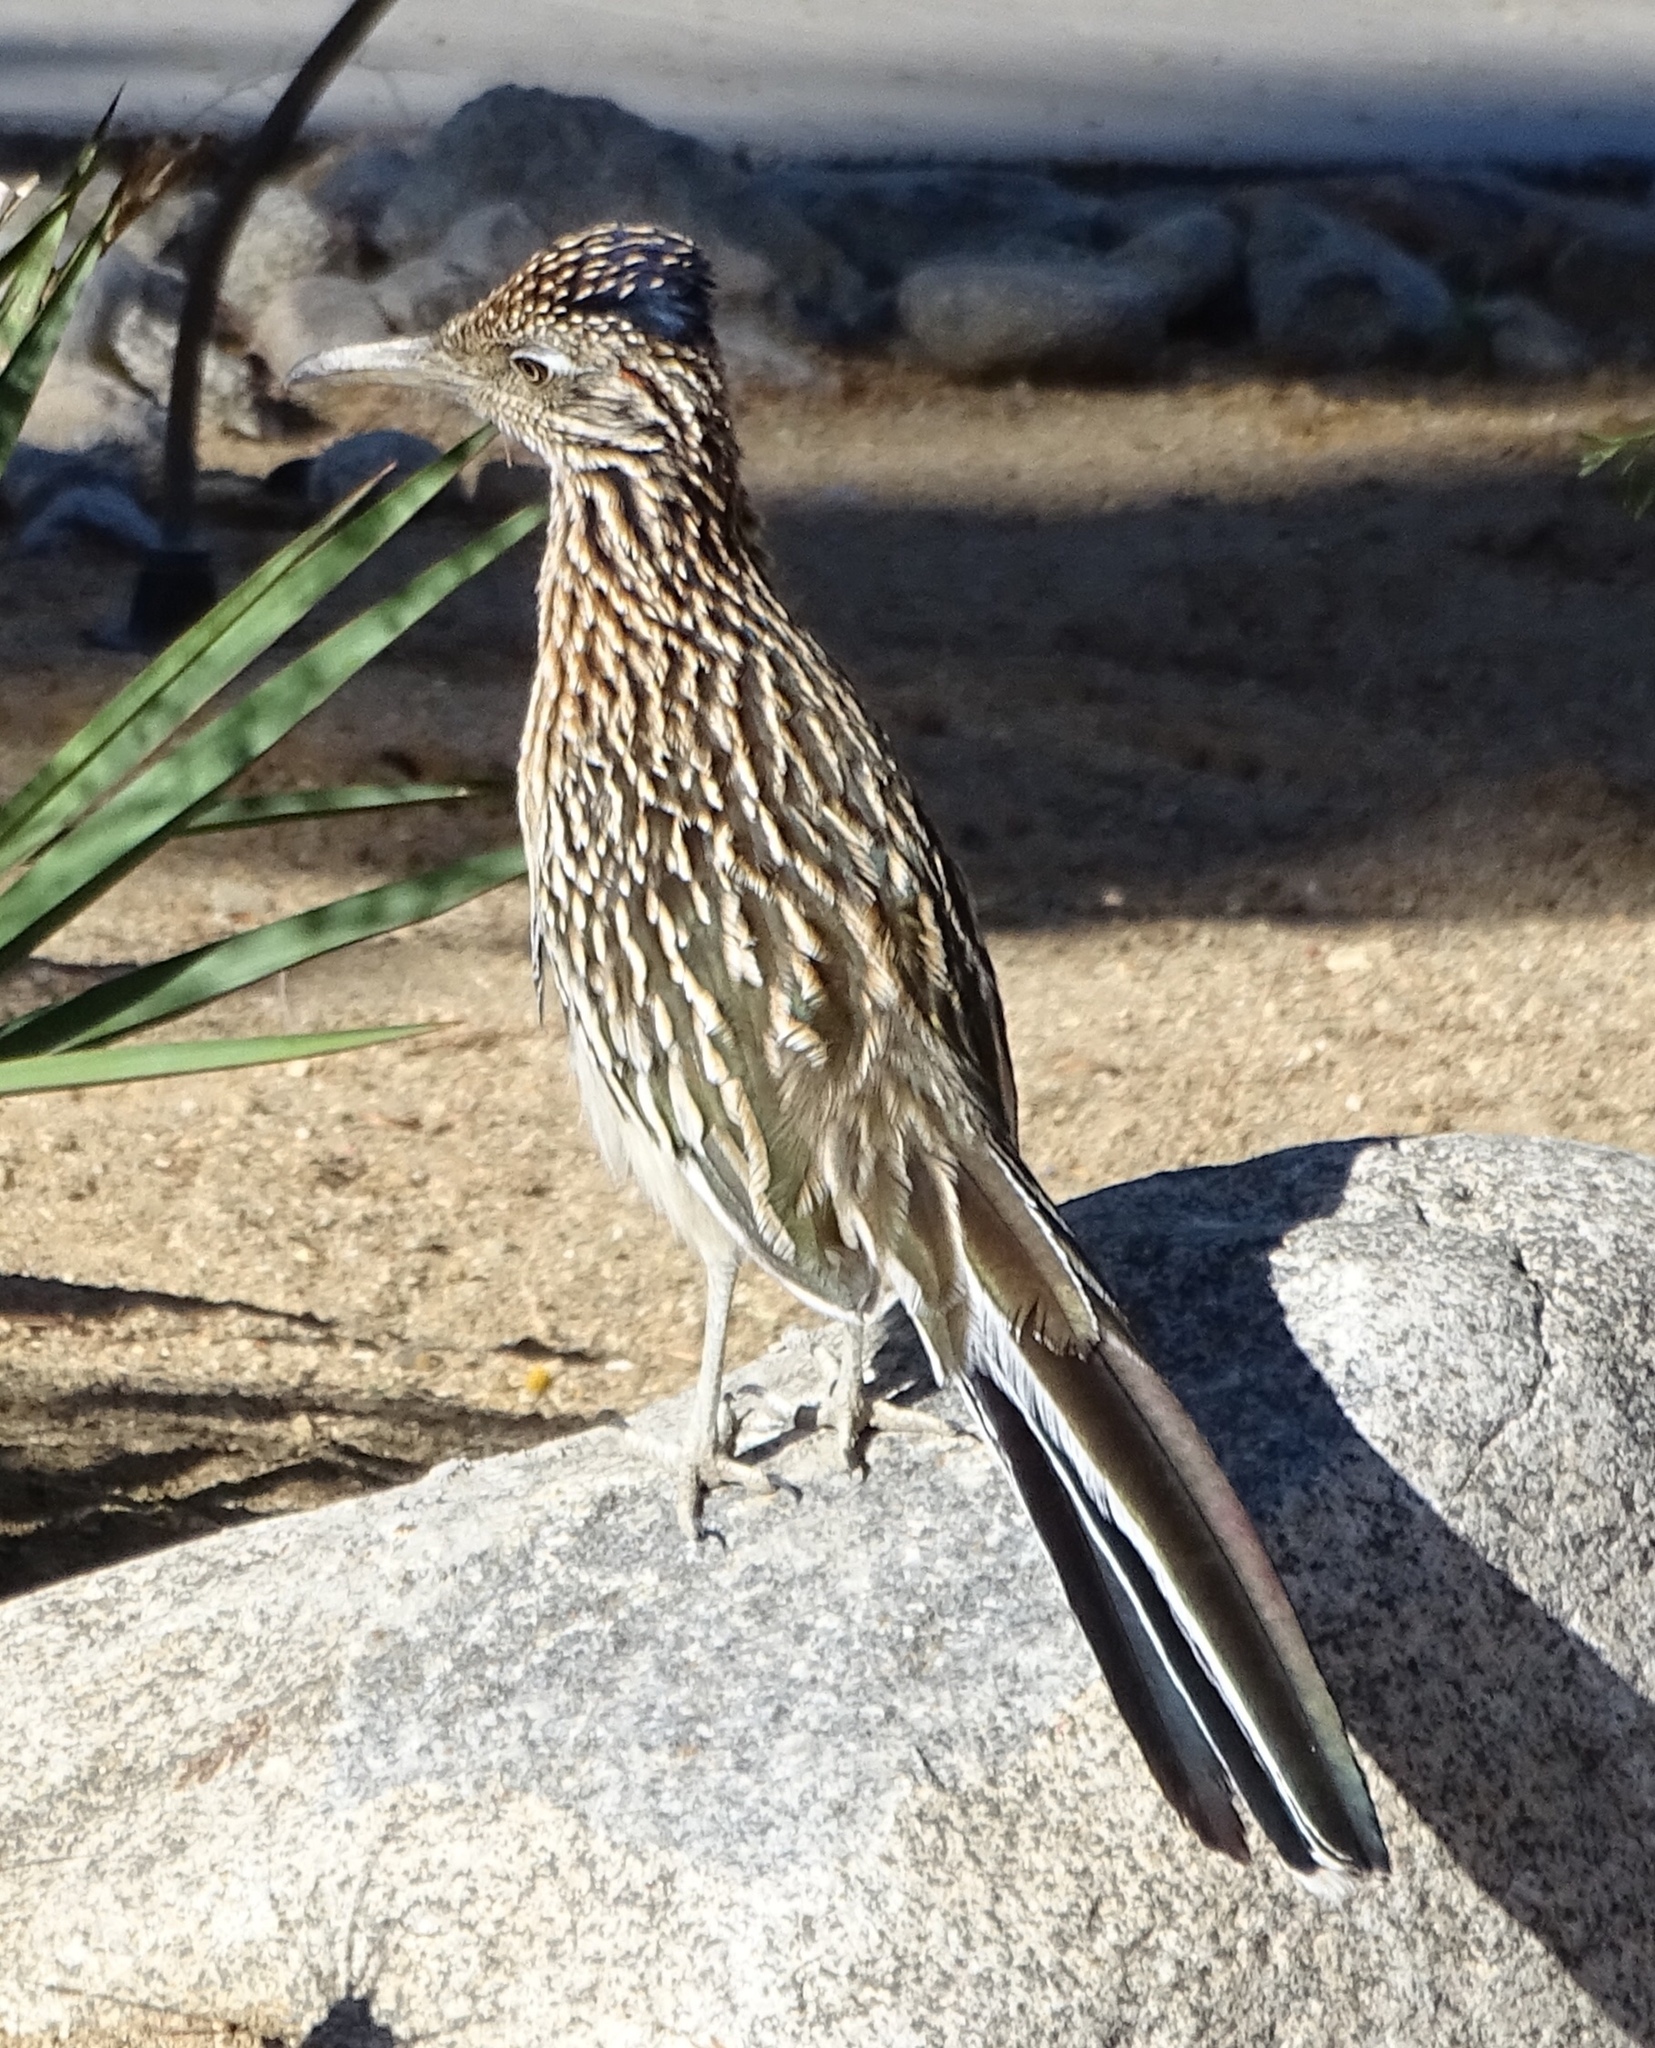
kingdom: Animalia
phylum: Chordata
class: Aves
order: Cuculiformes
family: Cuculidae
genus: Geococcyx
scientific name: Geococcyx californianus
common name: Greater roadrunner
